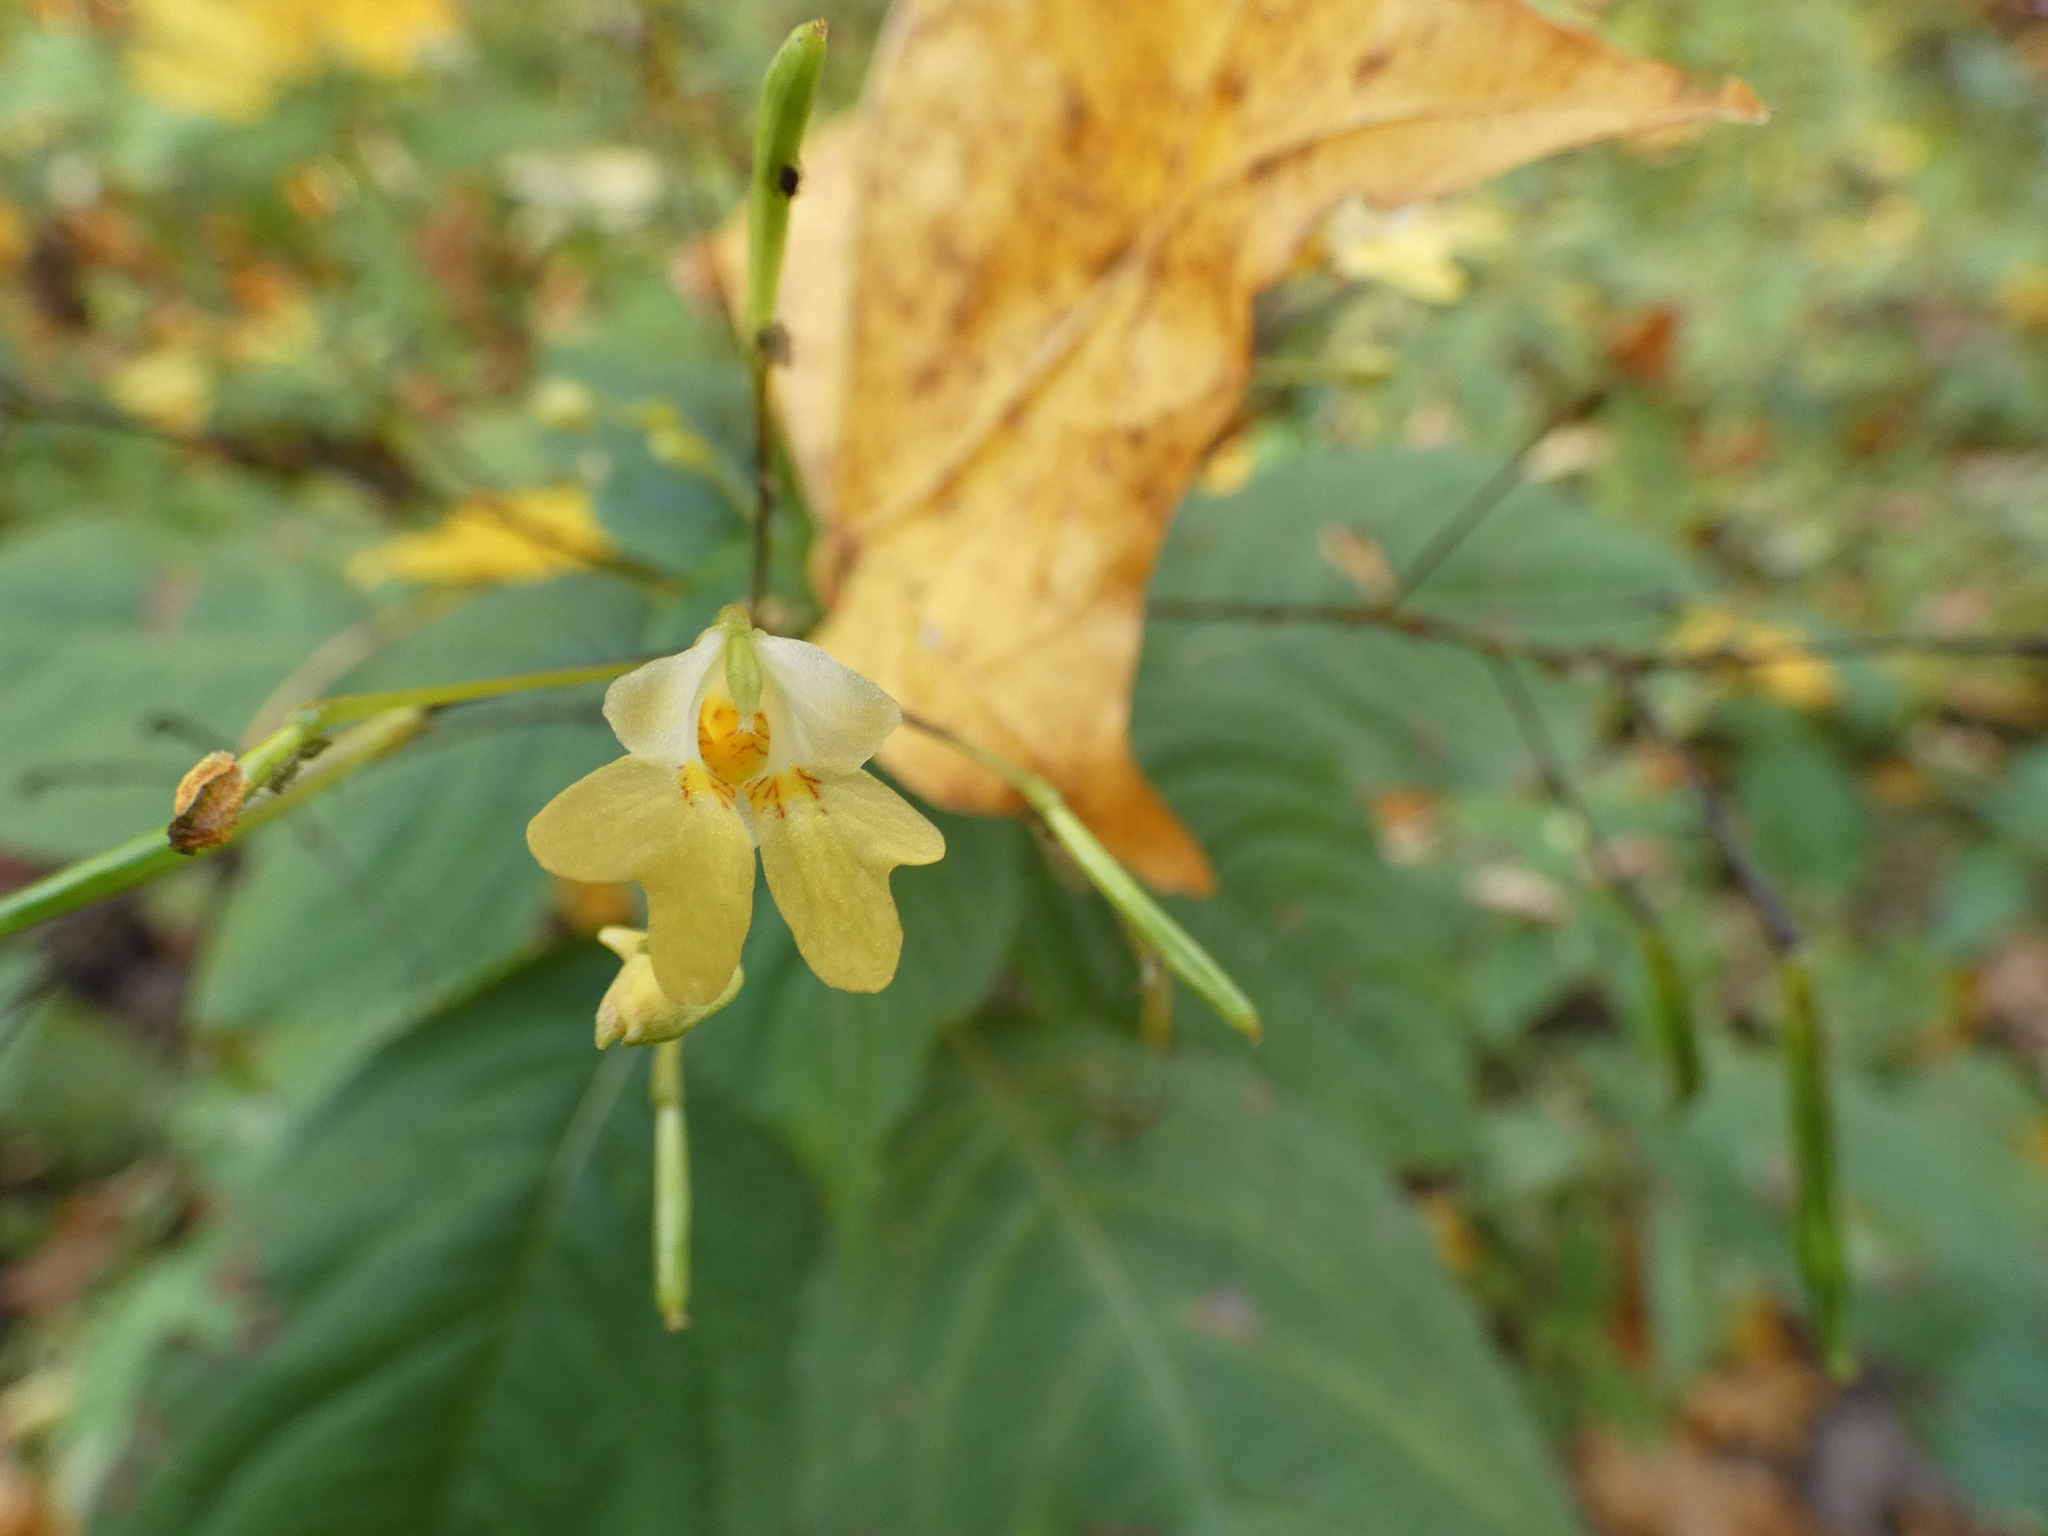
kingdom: Plantae
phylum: Tracheophyta
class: Magnoliopsida
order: Ericales
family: Balsaminaceae
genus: Impatiens
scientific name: Impatiens parviflora
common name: Small balsam
